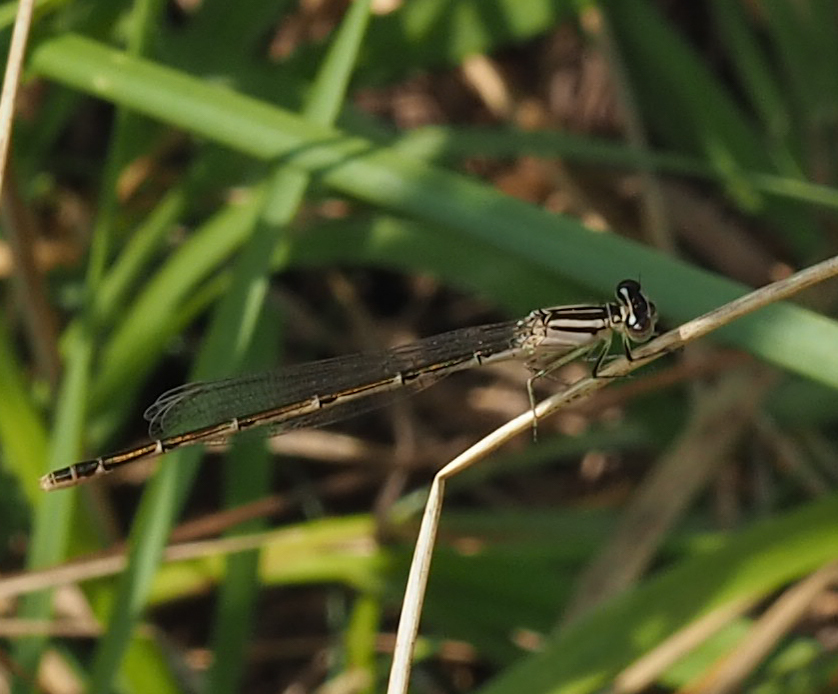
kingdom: Animalia
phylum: Arthropoda
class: Insecta
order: Odonata
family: Coenagrionidae
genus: Enallagma
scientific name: Enallagma durum
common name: Big bluet
